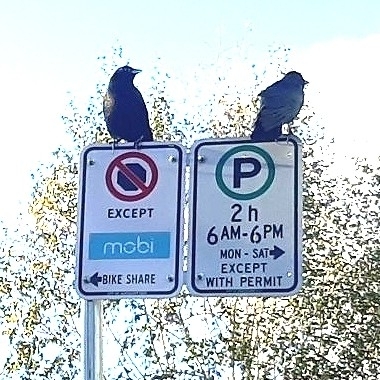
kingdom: Animalia
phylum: Chordata
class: Aves
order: Passeriformes
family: Corvidae
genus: Corvus
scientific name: Corvus brachyrhynchos
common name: American crow
